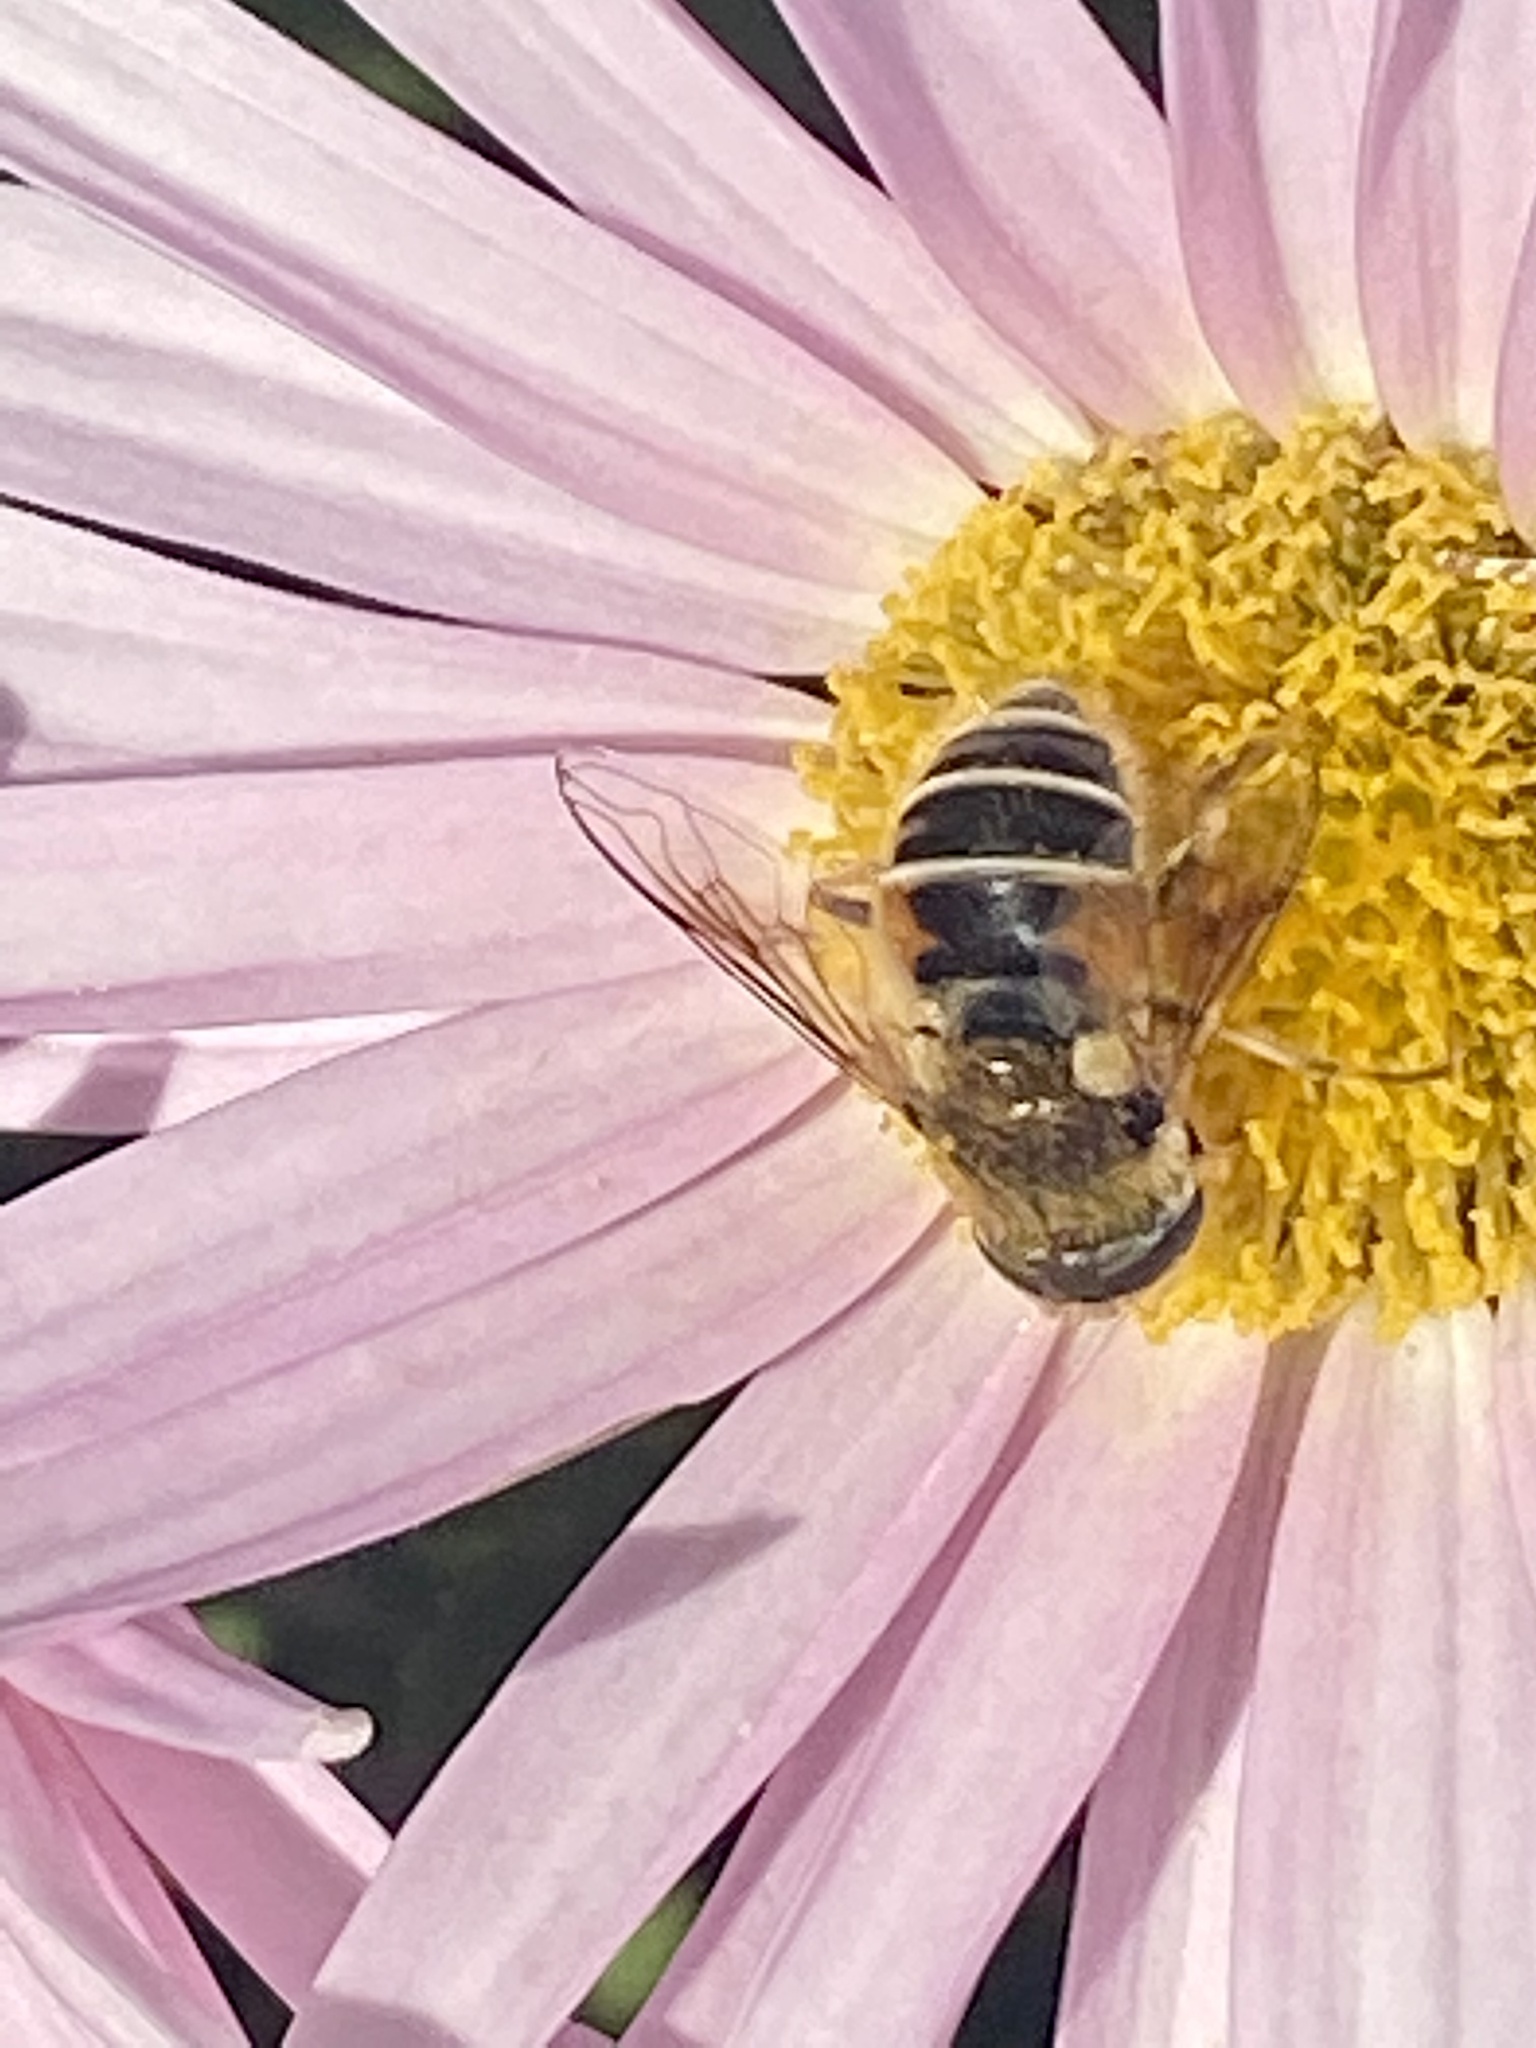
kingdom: Animalia
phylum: Arthropoda
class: Insecta
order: Diptera
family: Syrphidae
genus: Eristalis
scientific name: Eristalis arbustorum
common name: Hover fly
